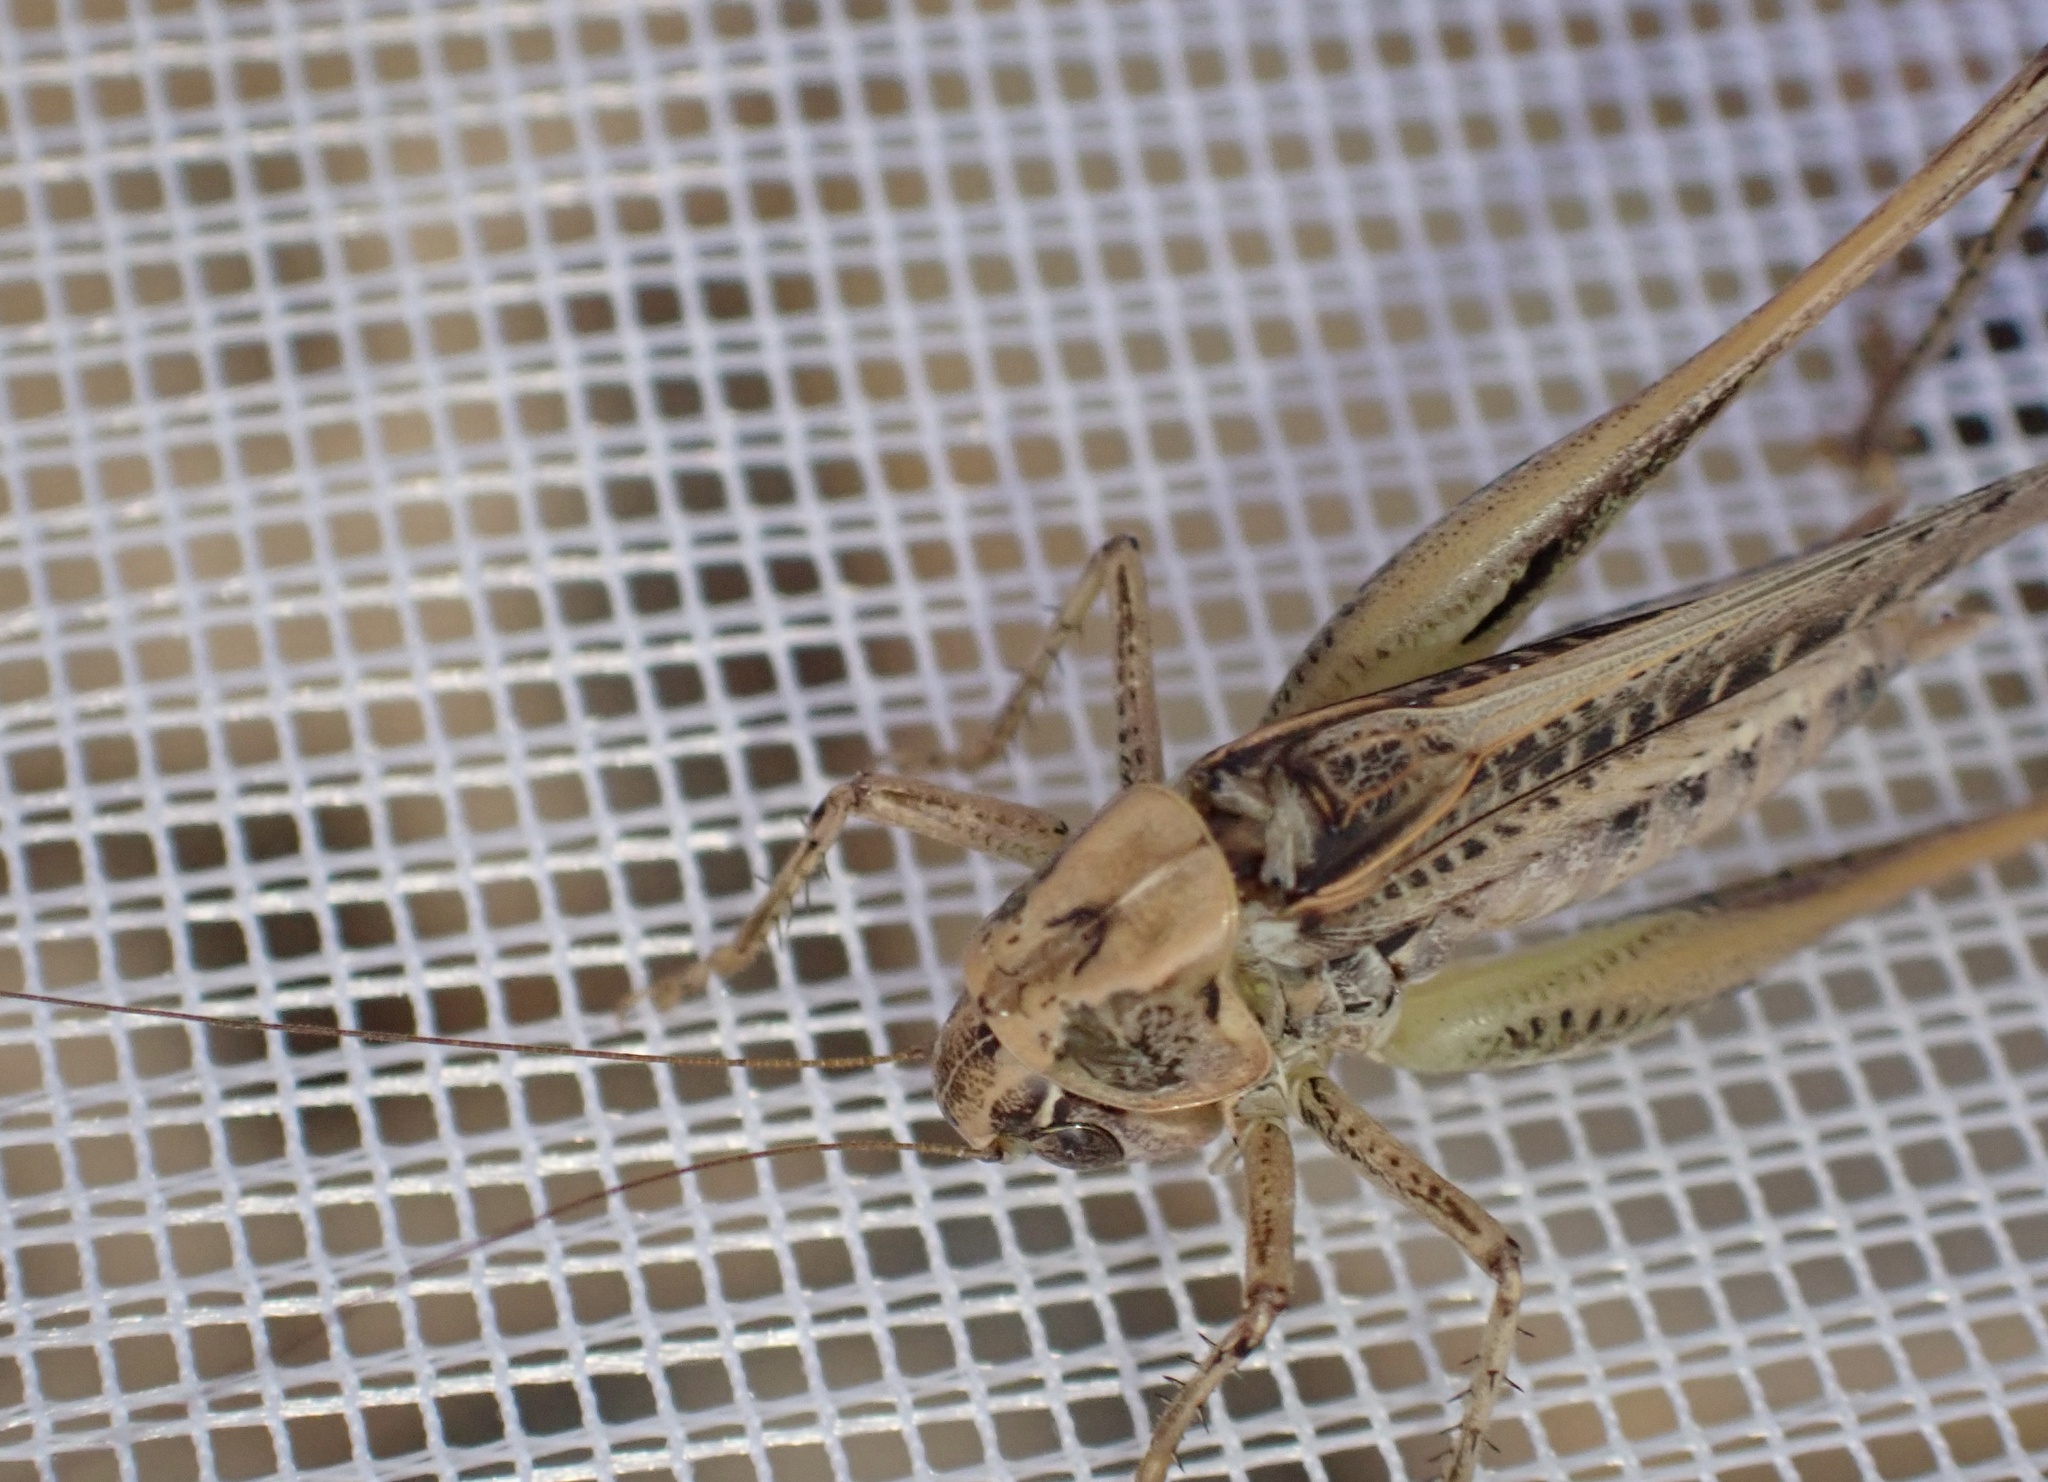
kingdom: Animalia
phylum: Arthropoda
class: Insecta
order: Orthoptera
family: Tettigoniidae
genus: Tessellana
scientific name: Tessellana tessellata
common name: Grasshopper
